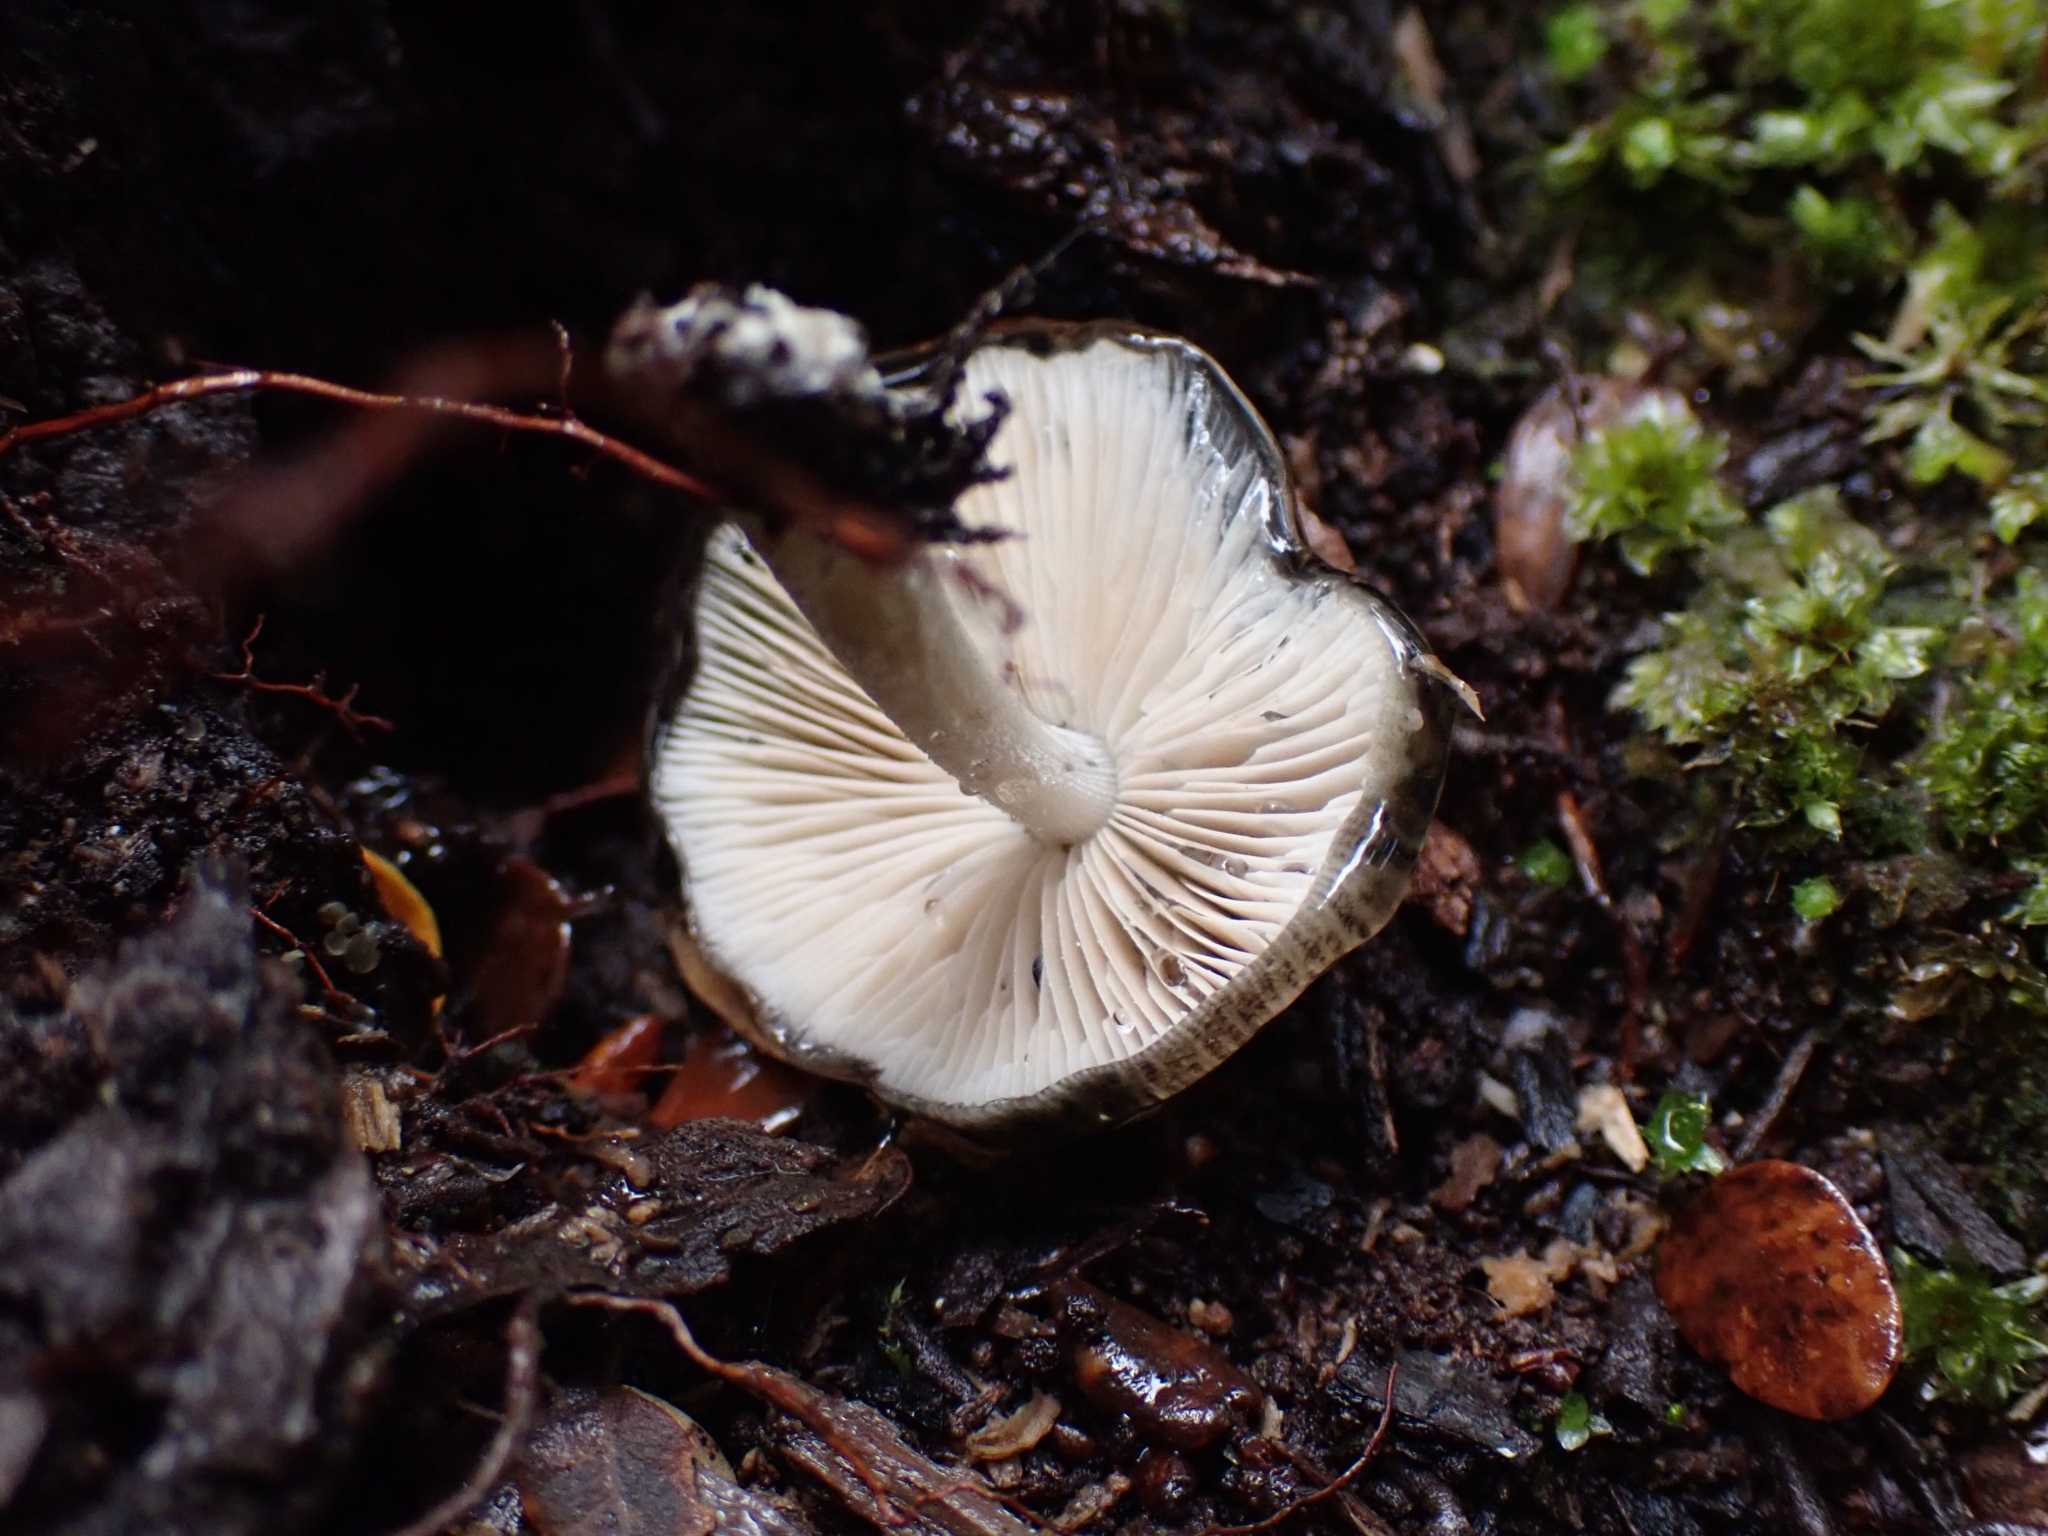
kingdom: Fungi
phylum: Basidiomycota
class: Agaricomycetes
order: Agaricales
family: Bolbitiaceae
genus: Bolbitius
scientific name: Bolbitius muscicola
